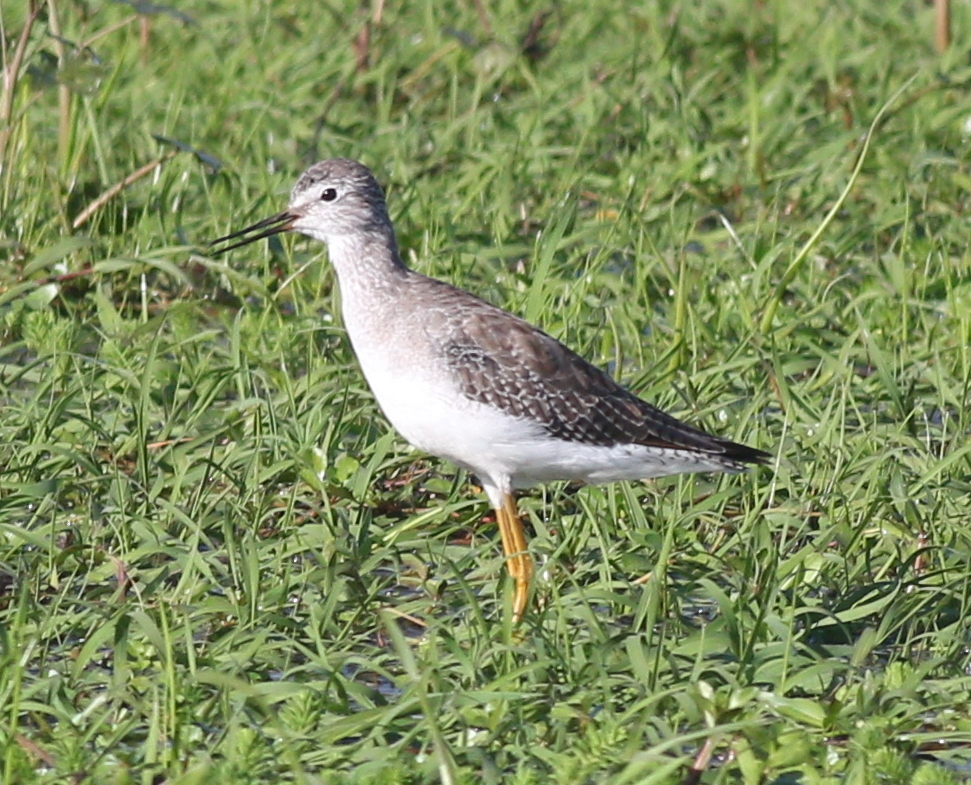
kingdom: Animalia
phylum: Chordata
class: Aves
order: Charadriiformes
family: Scolopacidae
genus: Tringa
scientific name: Tringa flavipes
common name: Lesser yellowlegs
